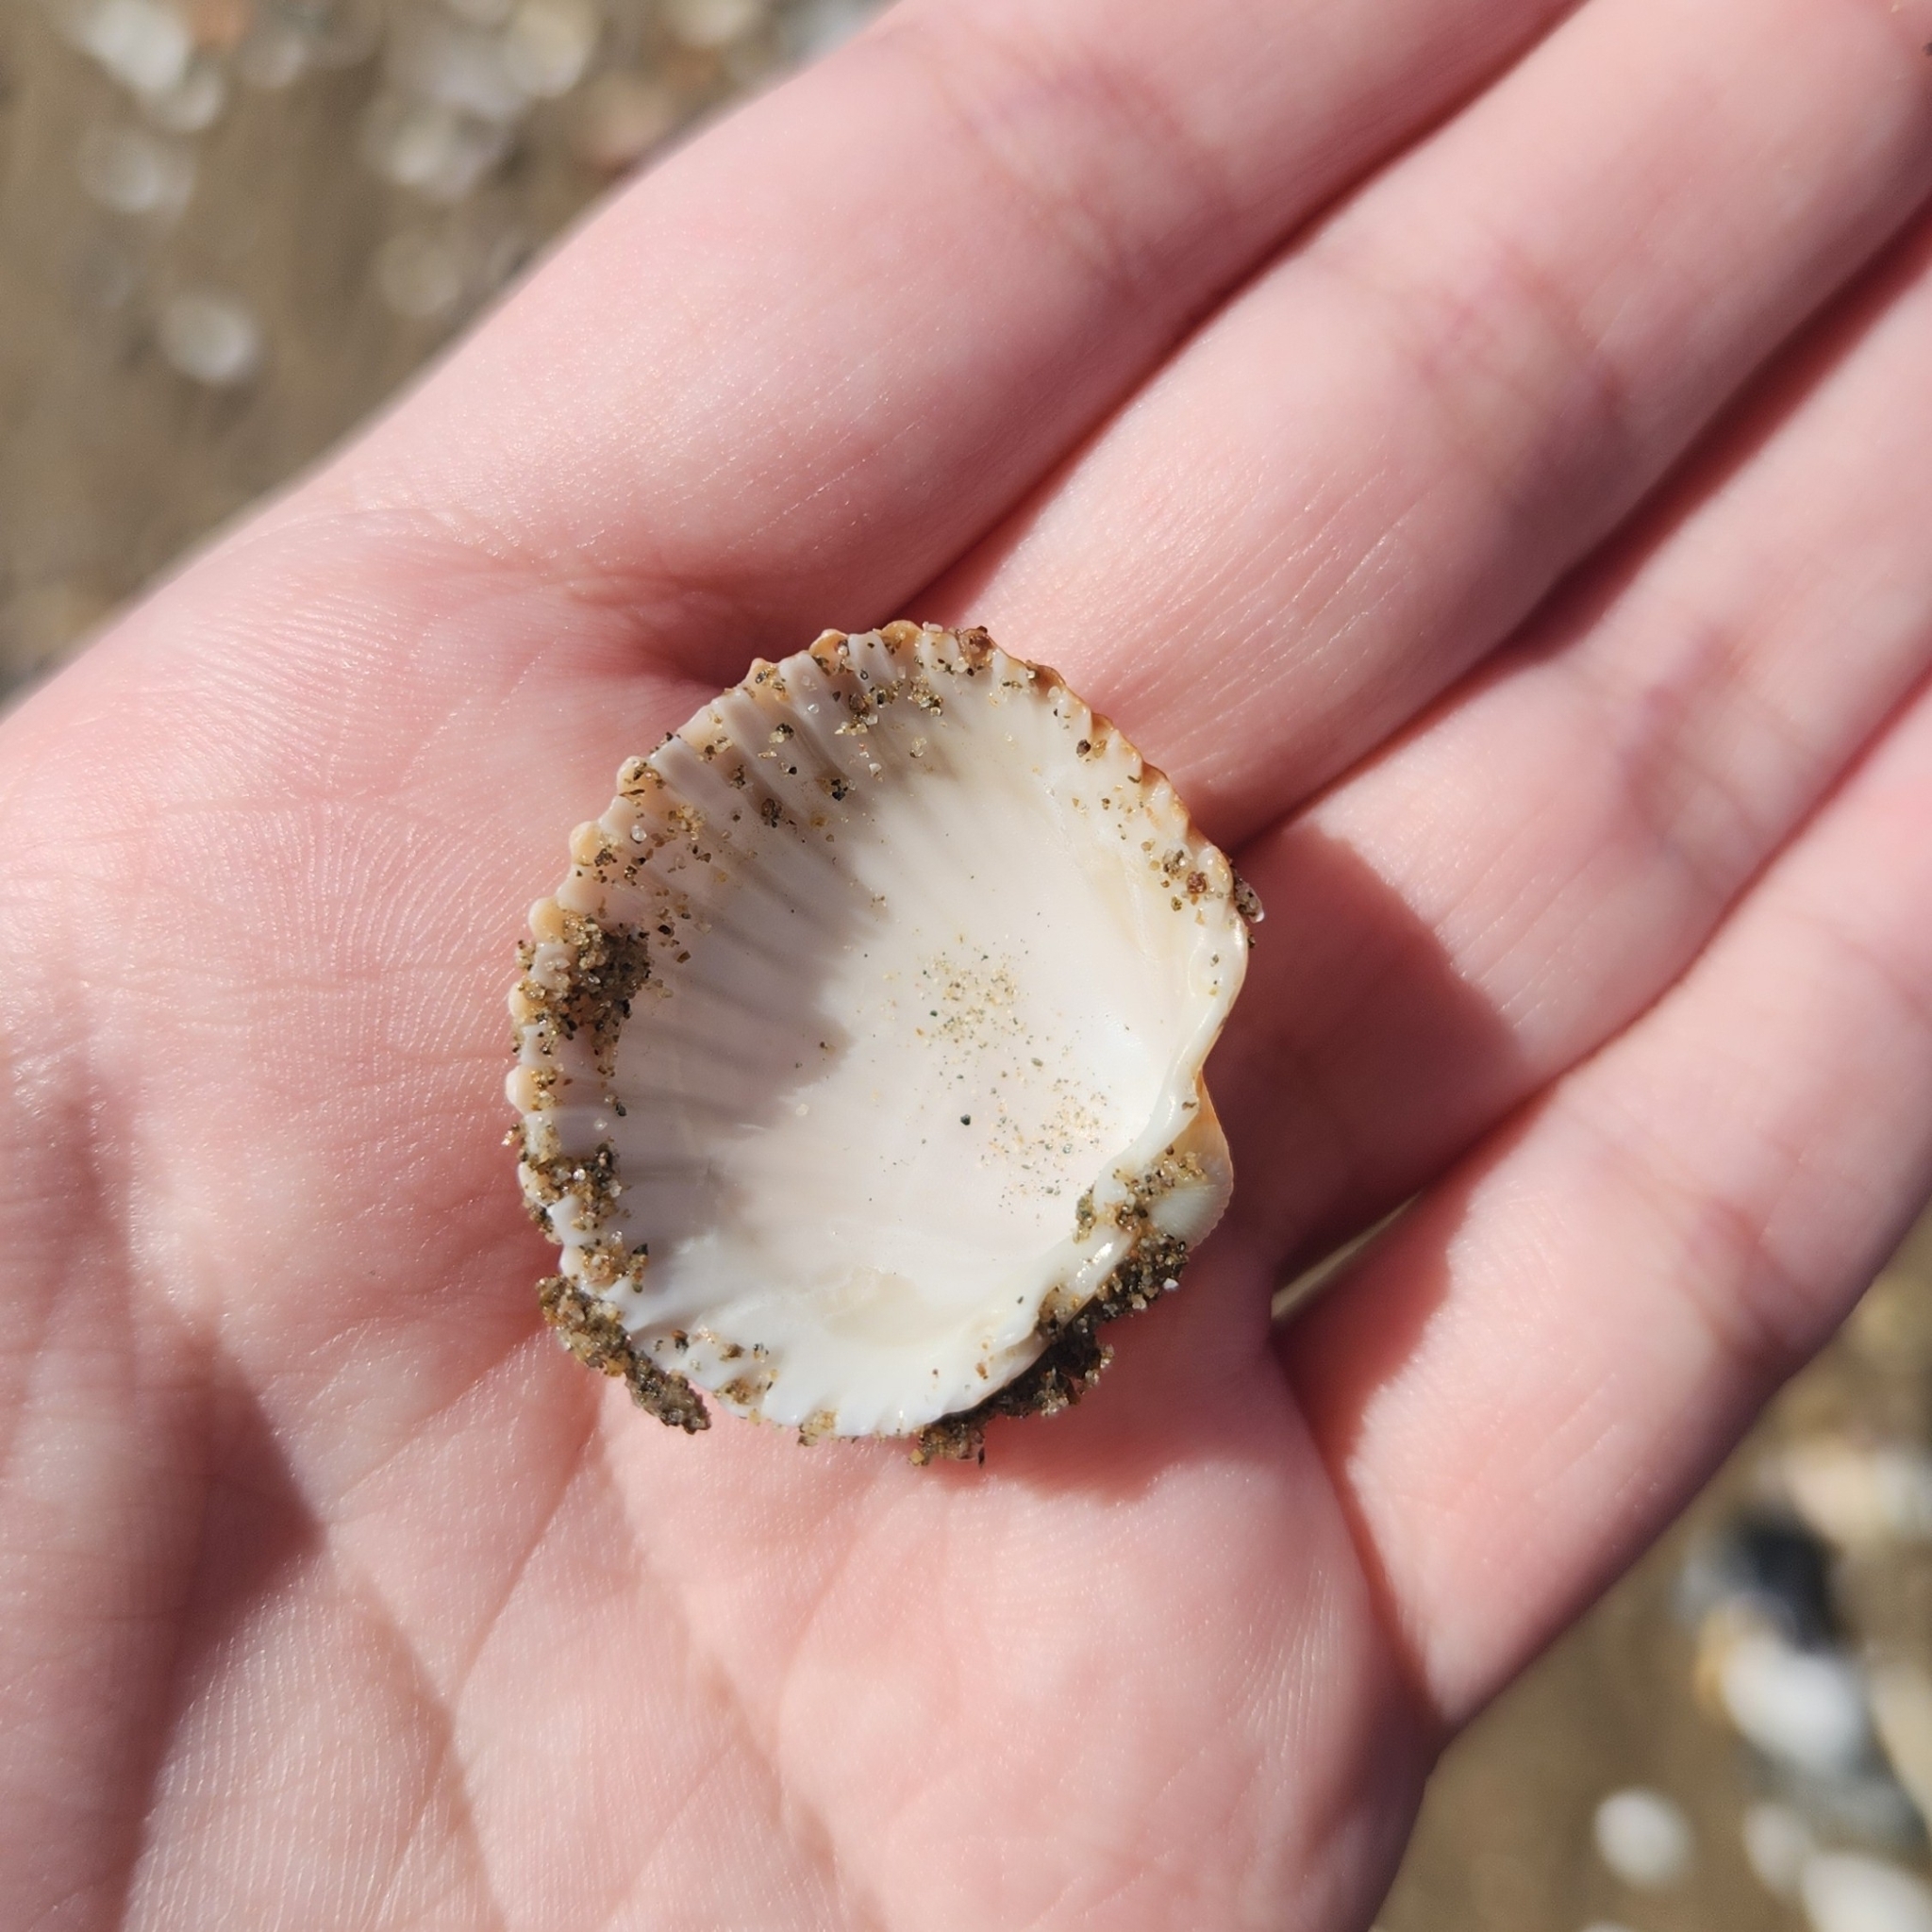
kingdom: Animalia
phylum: Mollusca
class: Bivalvia
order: Cardiida
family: Cardiidae
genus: Acanthocardia
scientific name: Acanthocardia tuberculata
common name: Rough cockle
